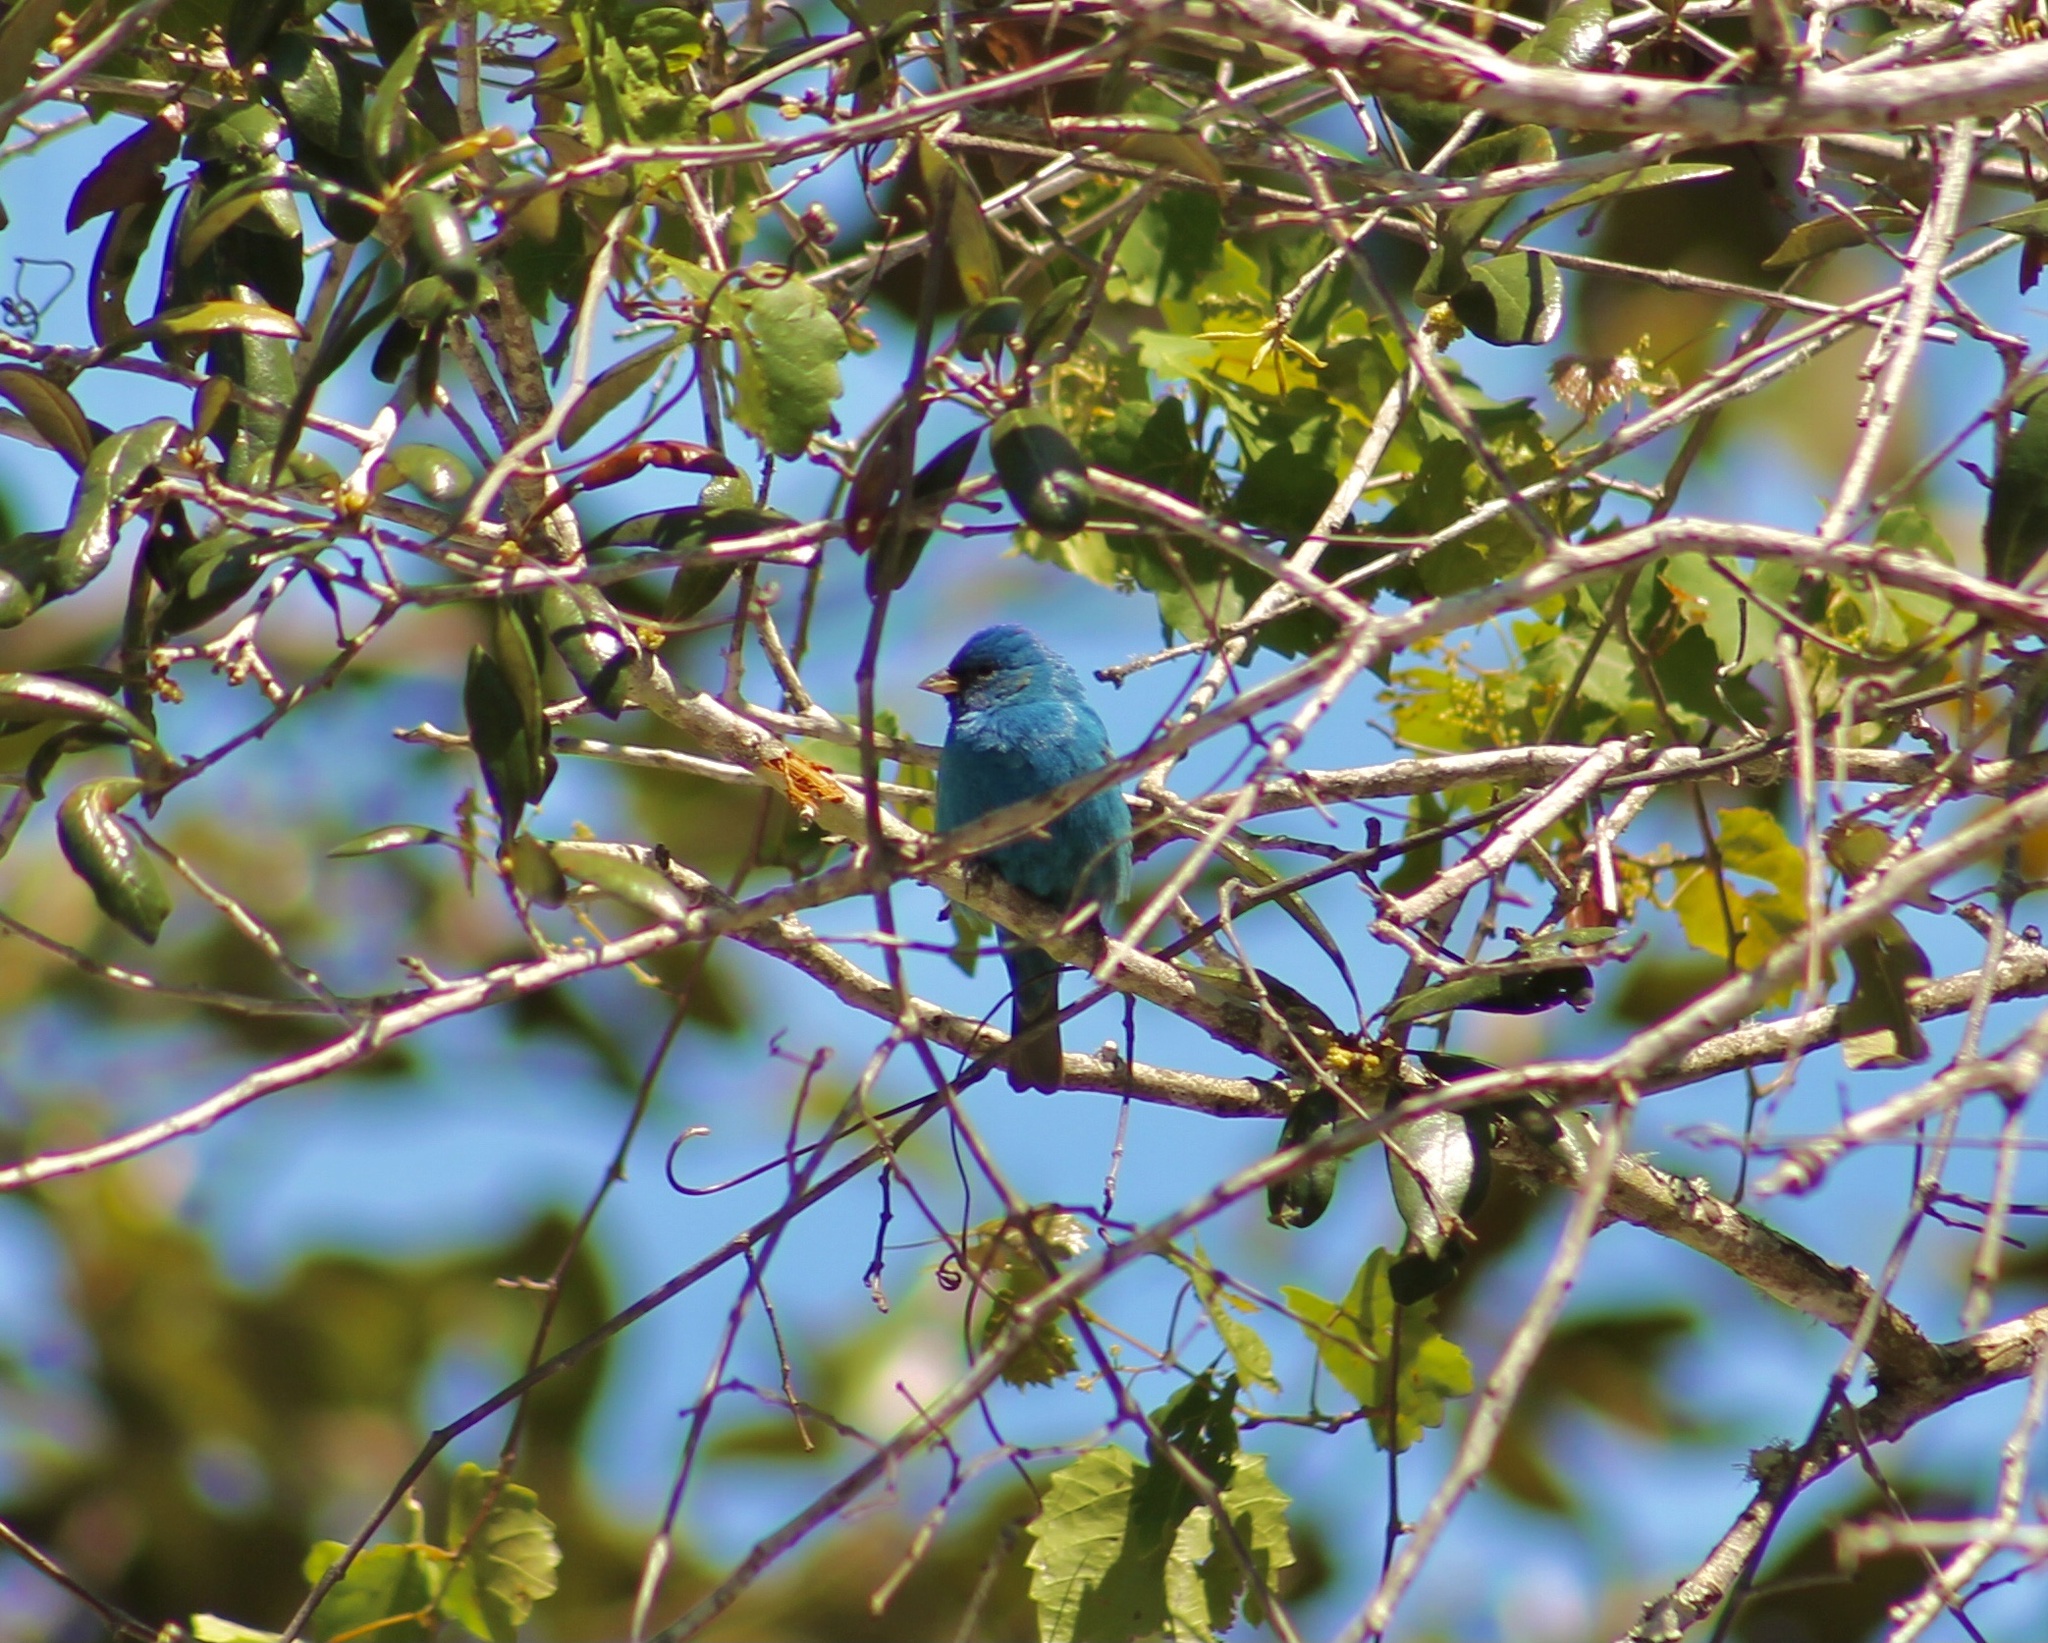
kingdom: Animalia
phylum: Chordata
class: Aves
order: Passeriformes
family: Cardinalidae
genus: Passerina
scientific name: Passerina cyanea
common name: Indigo bunting
